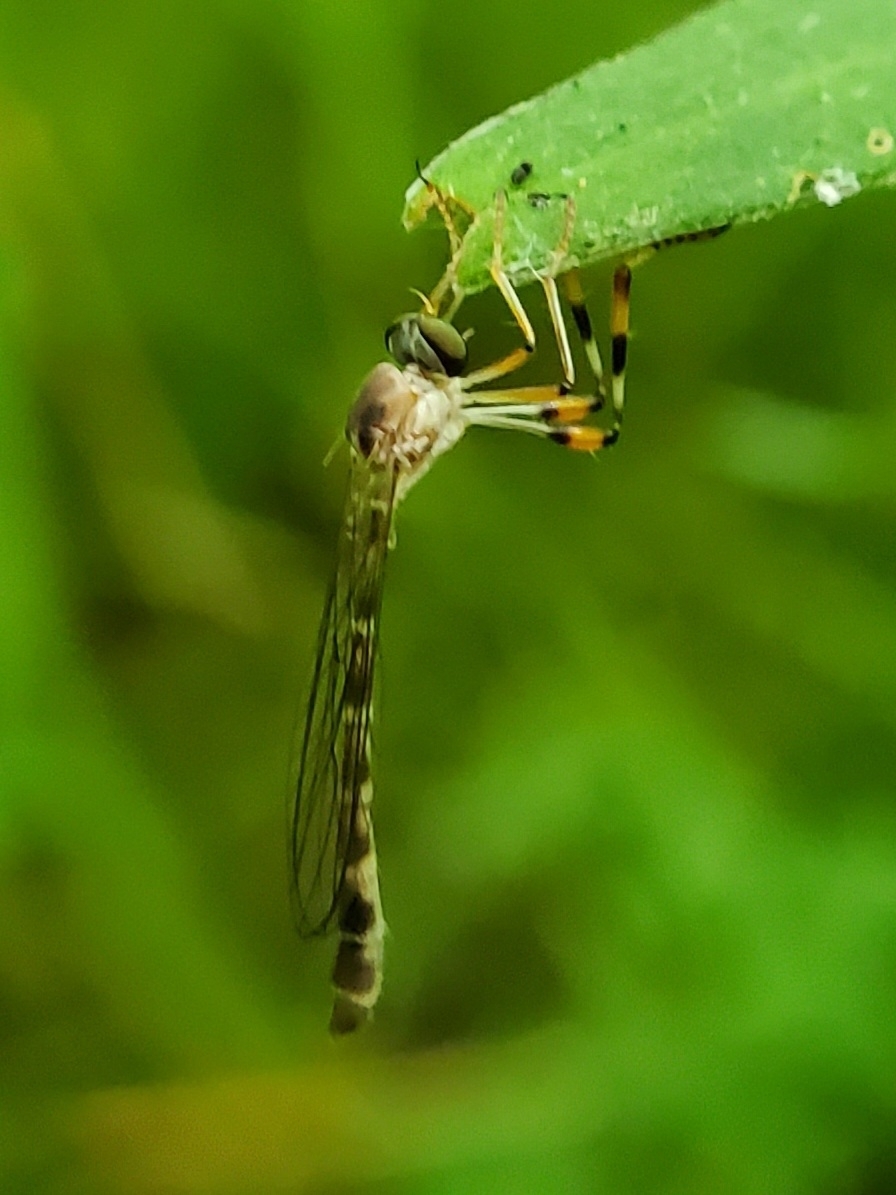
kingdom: Animalia
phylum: Arthropoda
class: Insecta
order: Diptera
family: Asilidae
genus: Psilonyx
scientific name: Psilonyx annulatus
